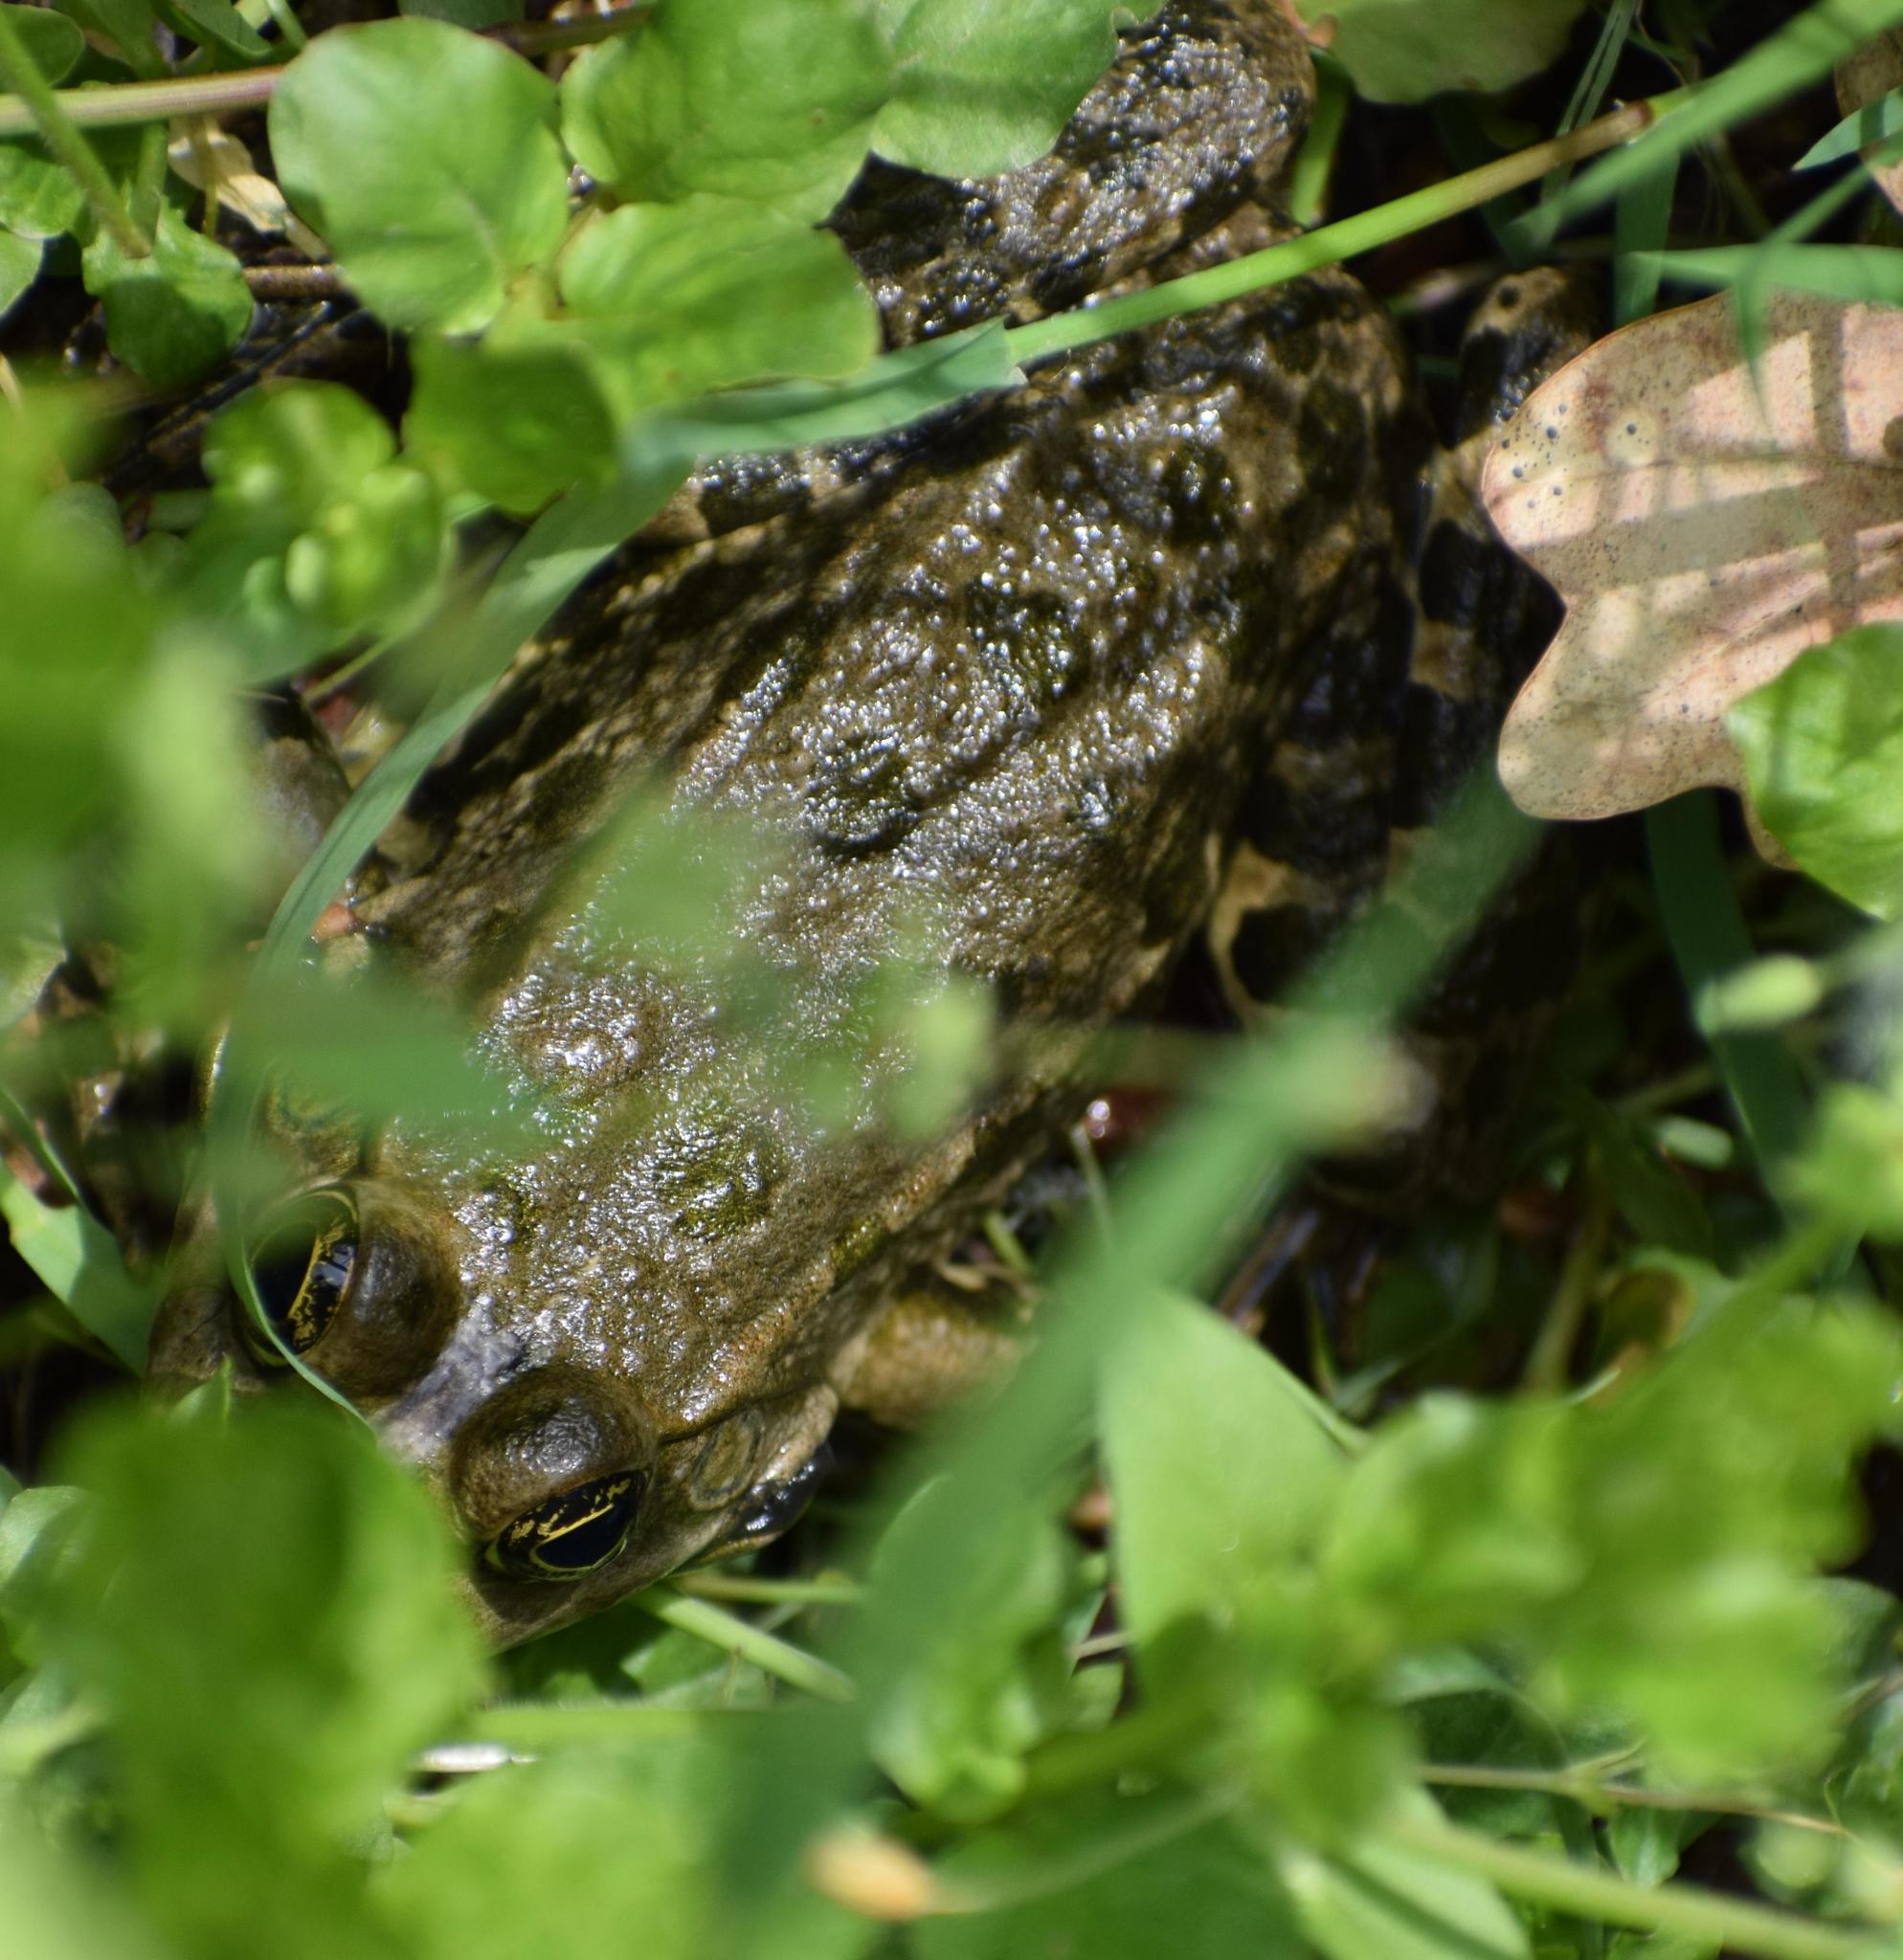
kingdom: Animalia
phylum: Chordata
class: Amphibia
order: Anura
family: Ranidae
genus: Pelophylax
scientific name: Pelophylax
